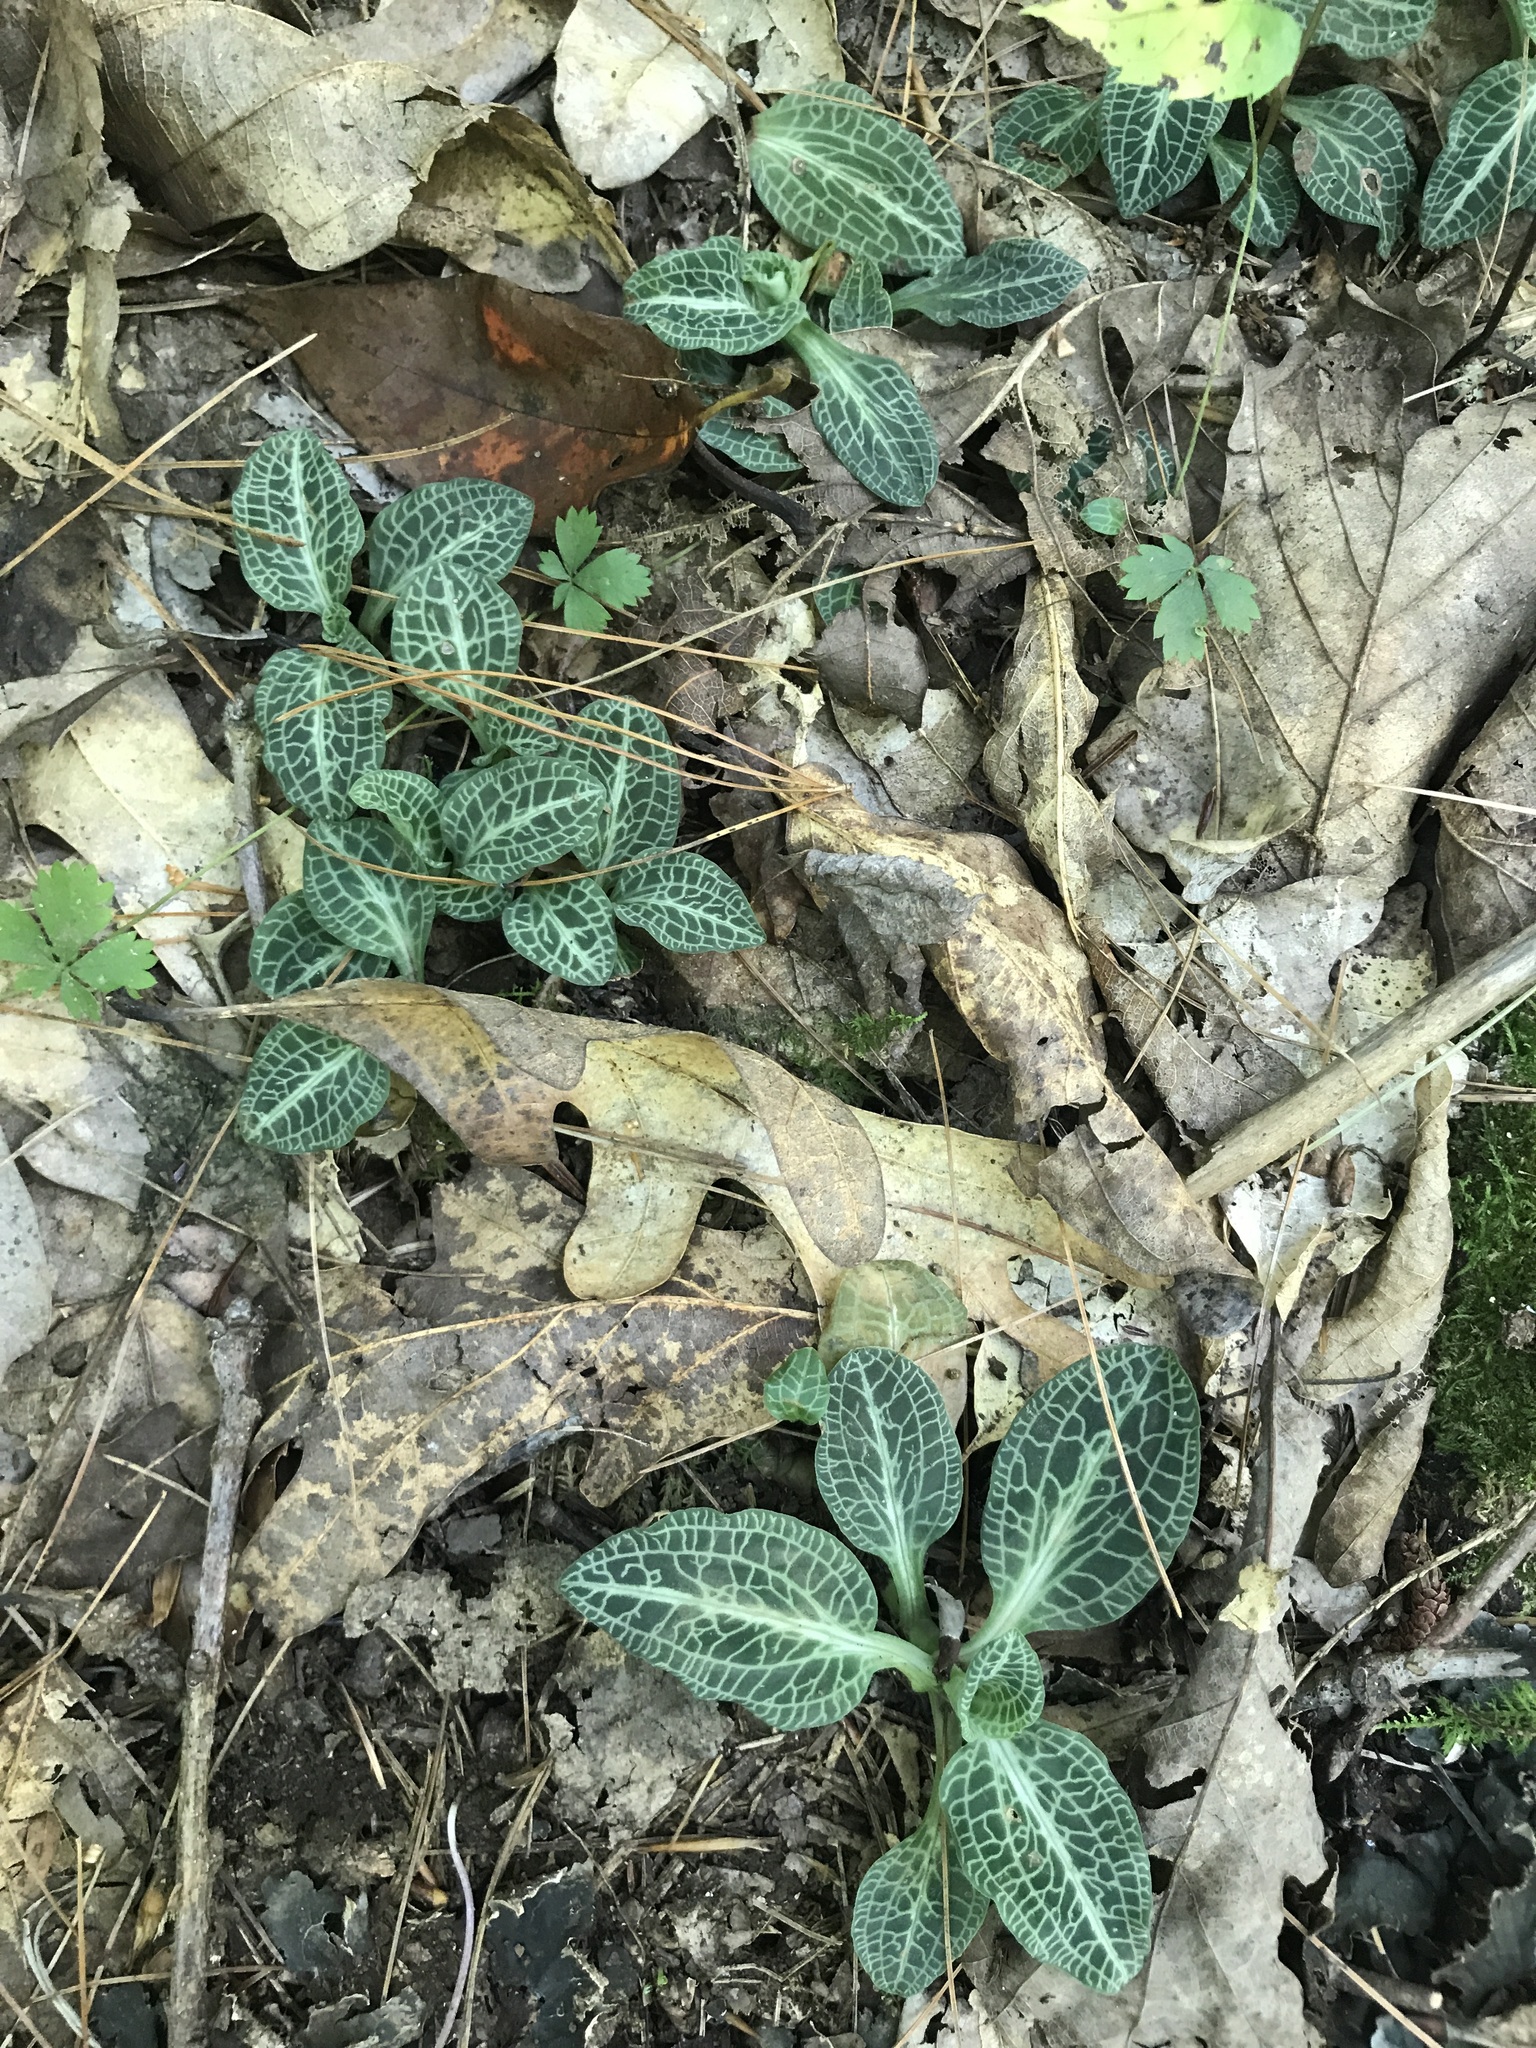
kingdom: Plantae
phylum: Tracheophyta
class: Liliopsida
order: Asparagales
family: Orchidaceae
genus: Goodyera
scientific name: Goodyera pubescens
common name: Downy rattlesnake-plantain
